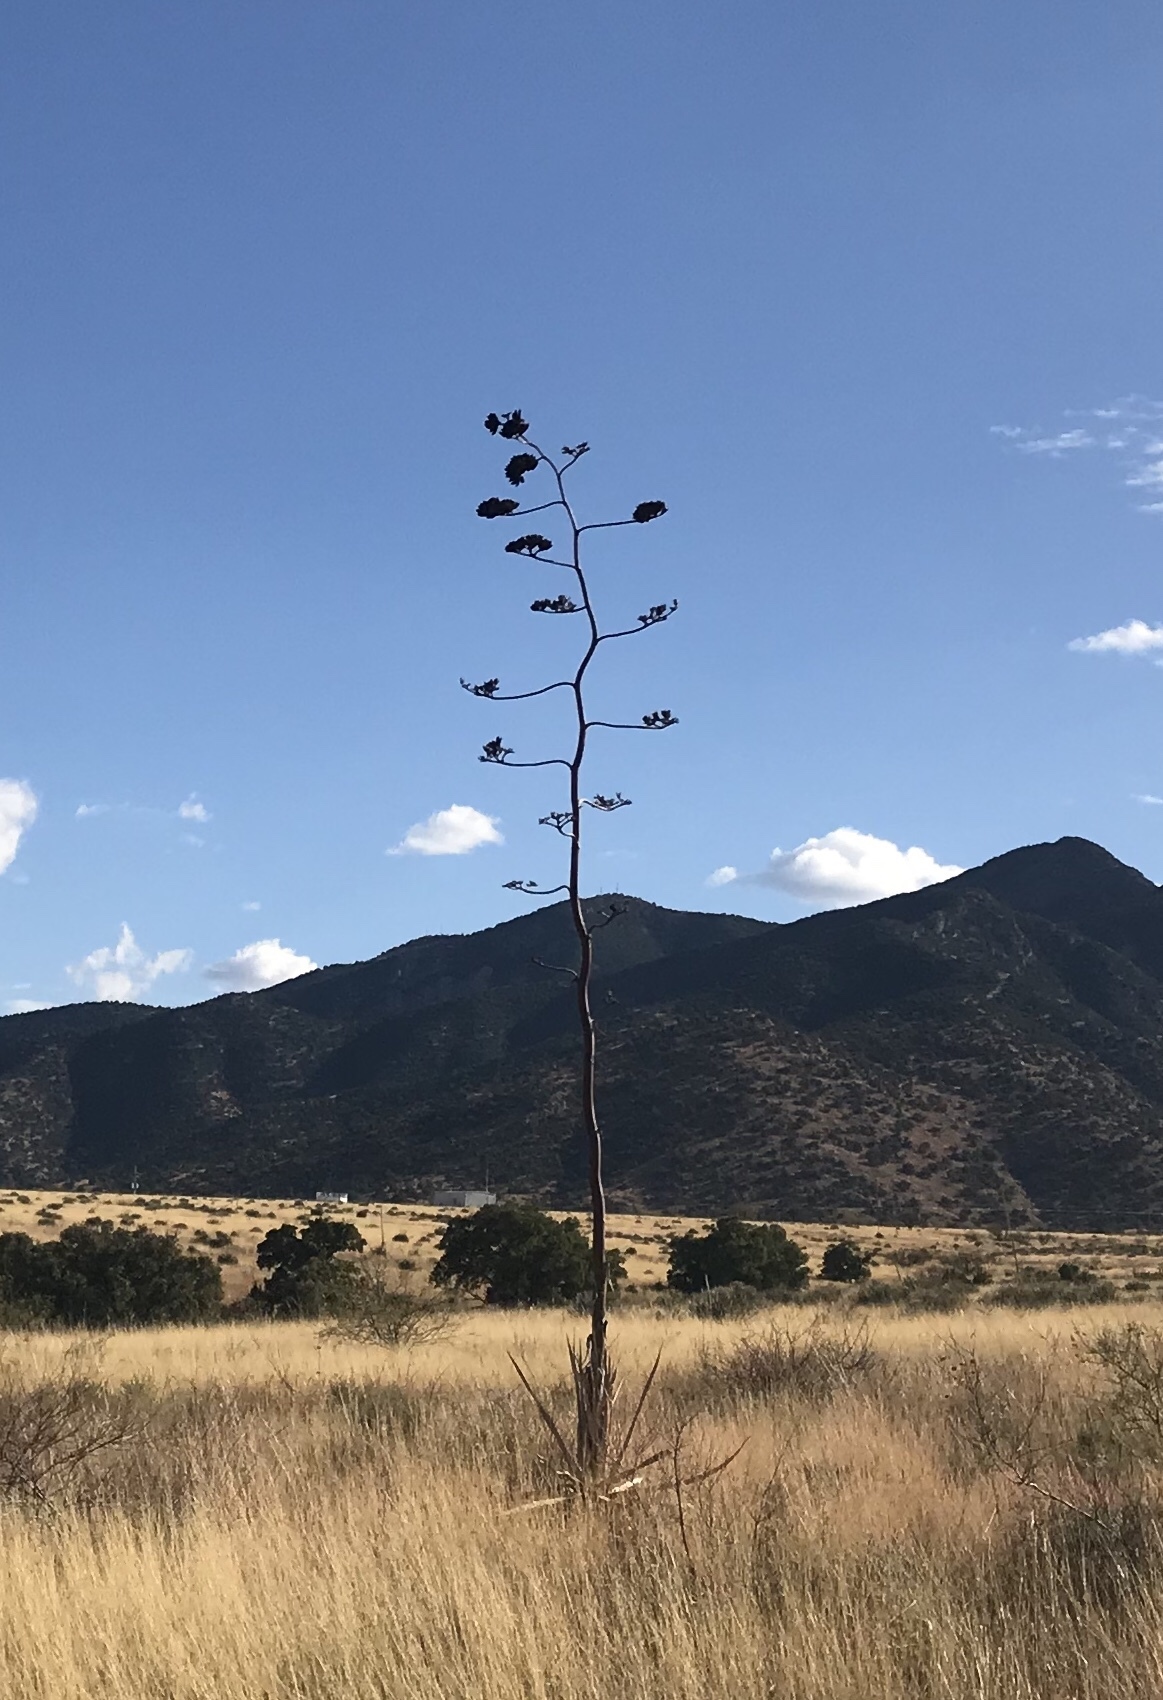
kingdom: Plantae
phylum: Tracheophyta
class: Liliopsida
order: Asparagales
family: Asparagaceae
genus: Agave
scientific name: Agave palmeri
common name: Palmer agave
